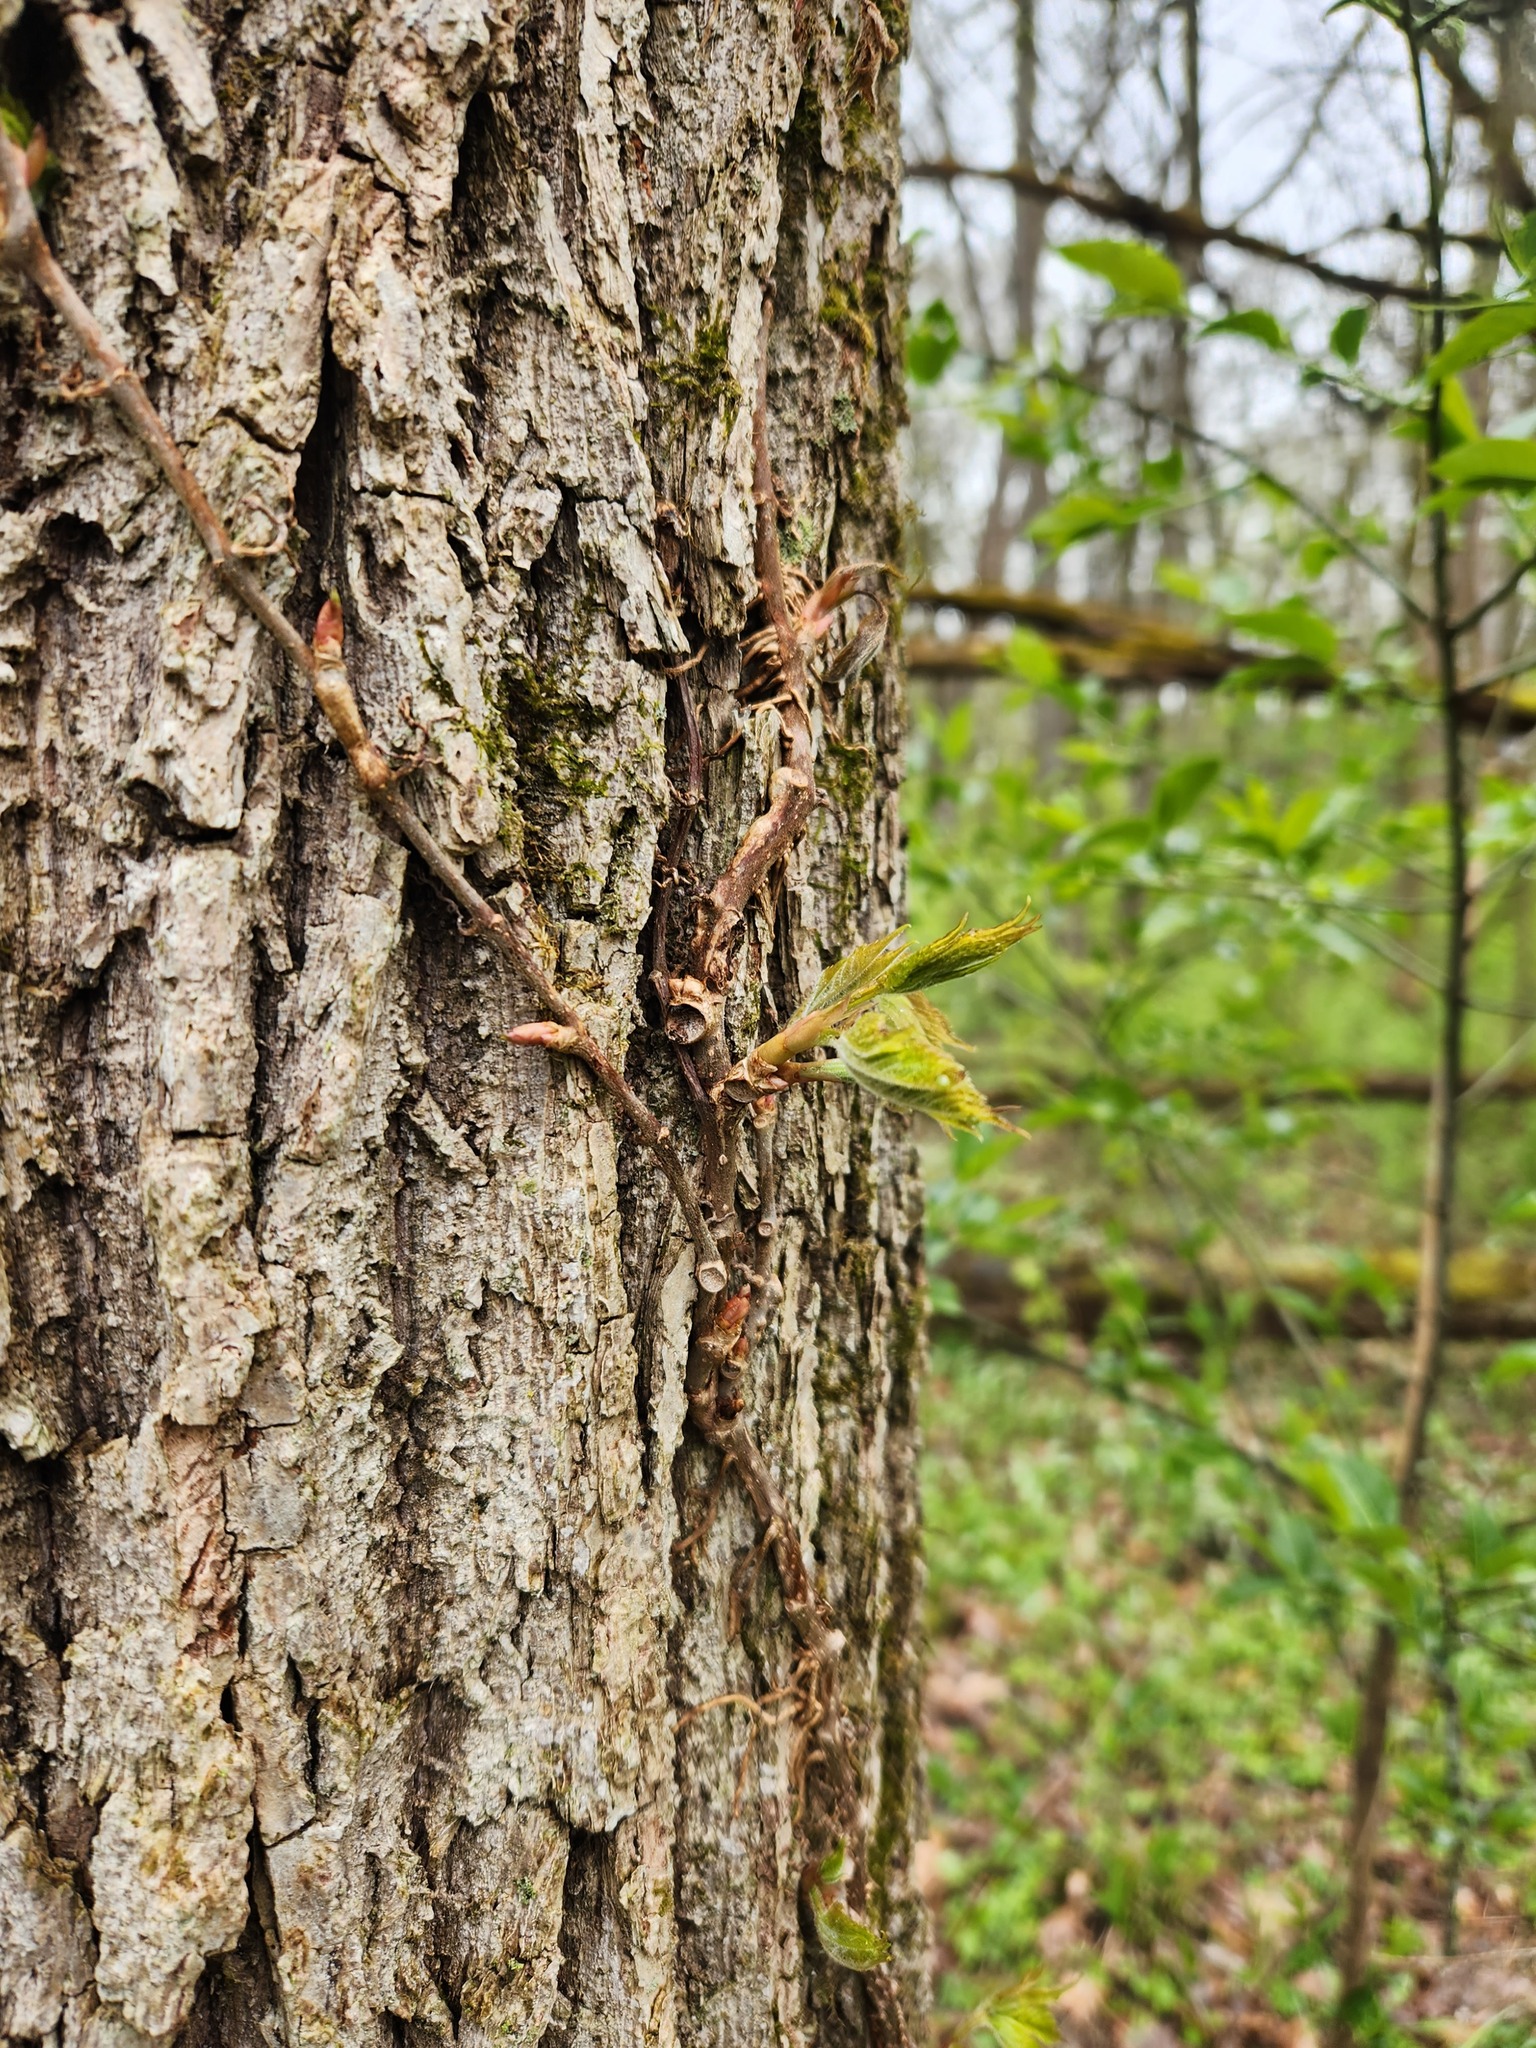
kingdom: Plantae
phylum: Tracheophyta
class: Magnoliopsida
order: Vitales
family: Vitaceae
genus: Parthenocissus
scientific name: Parthenocissus quinquefolia
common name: Virginia-creeper
